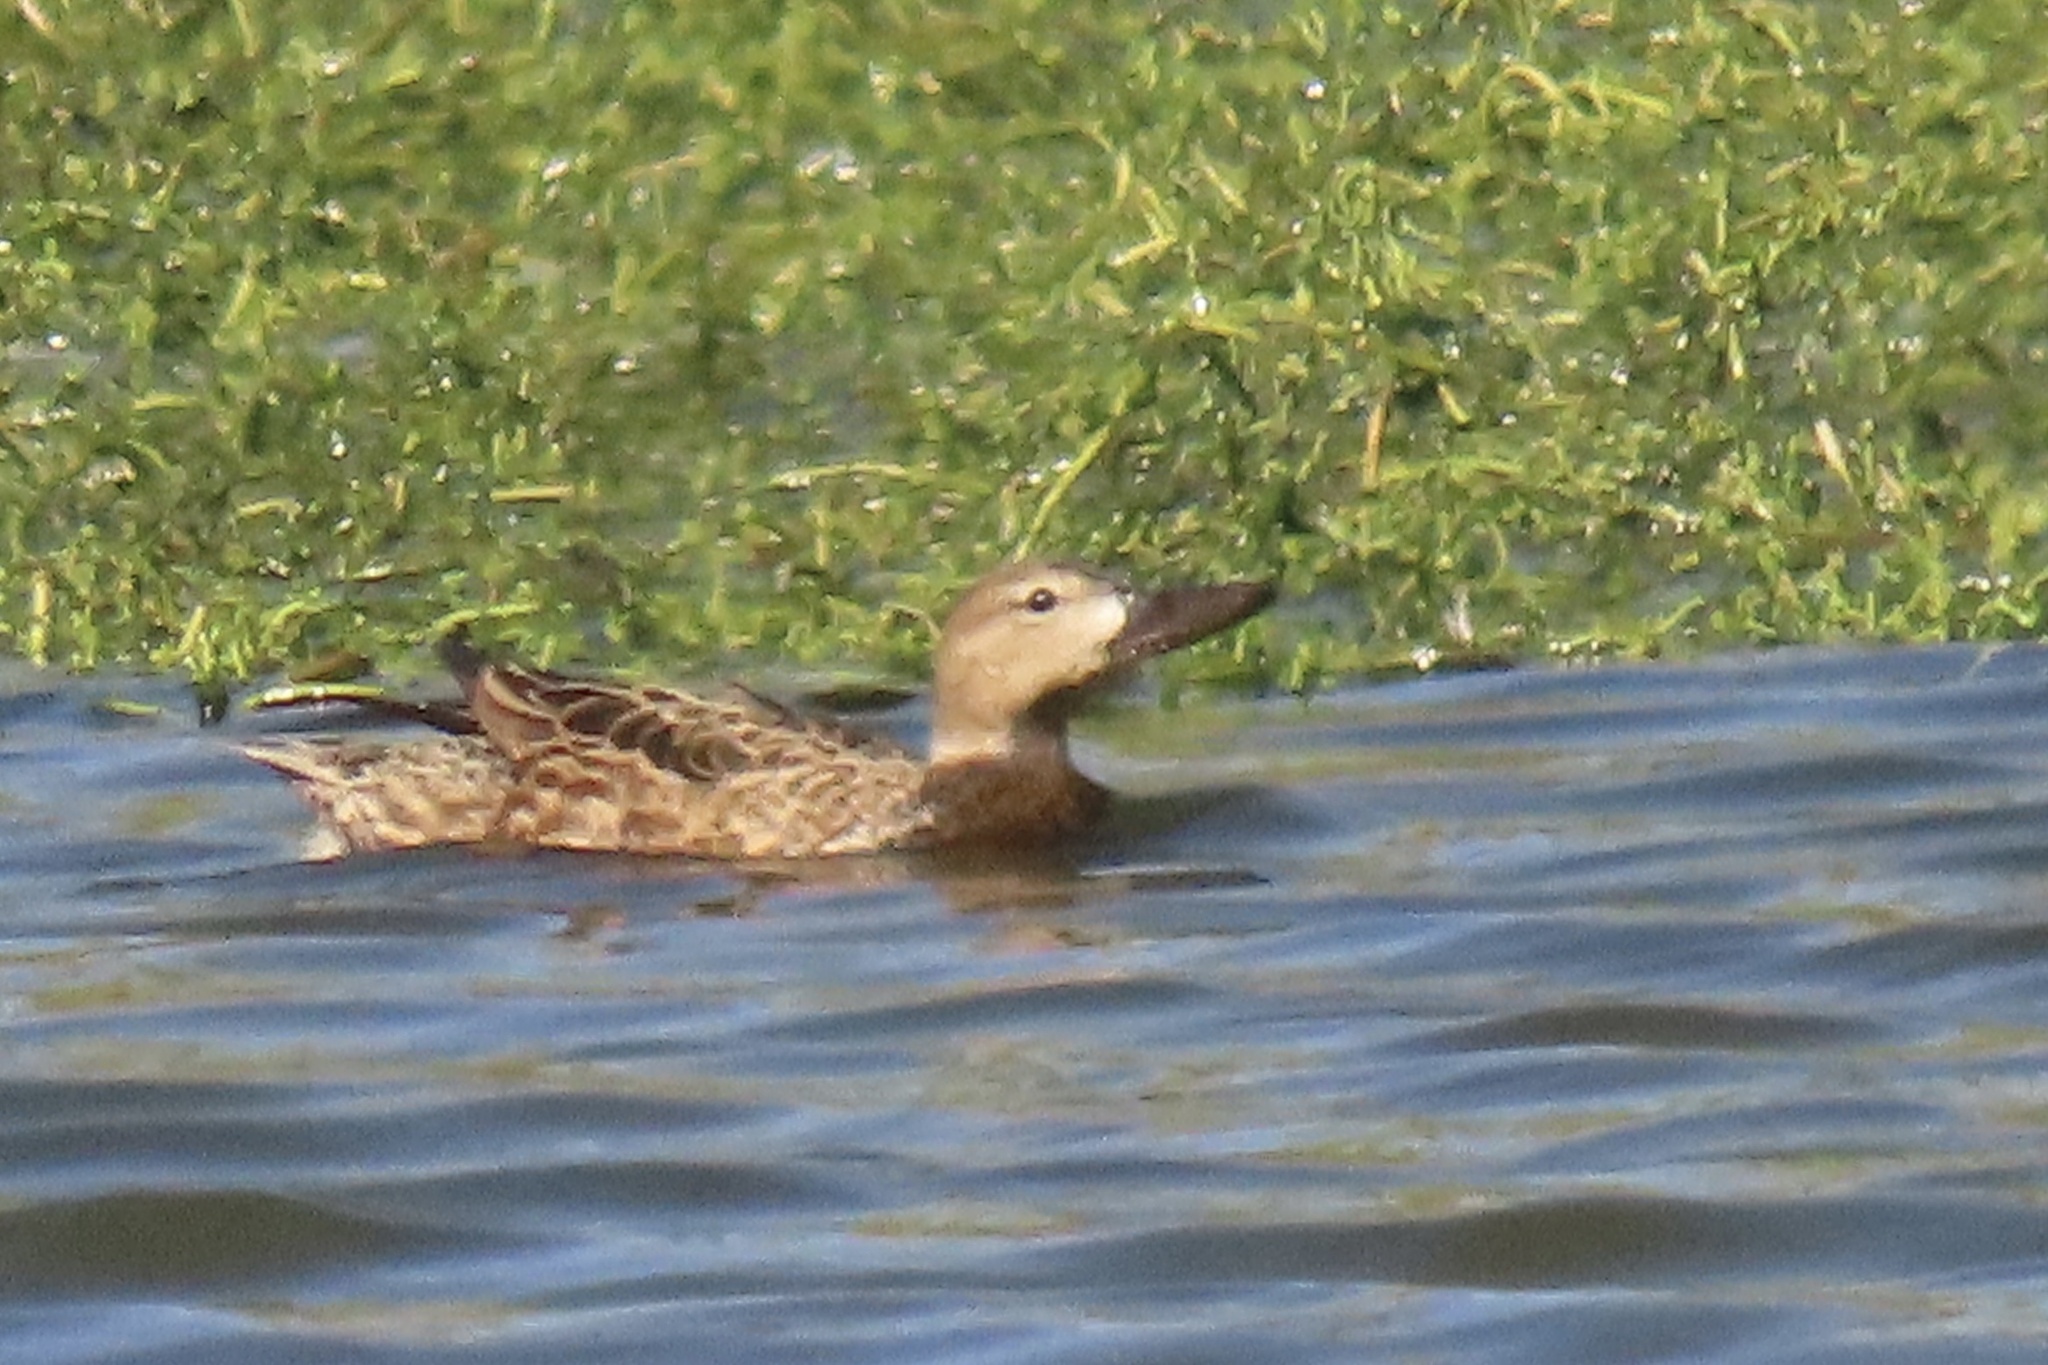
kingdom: Animalia
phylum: Chordata
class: Aves
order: Anseriformes
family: Anatidae
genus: Spatula
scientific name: Spatula discors
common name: Blue-winged teal
